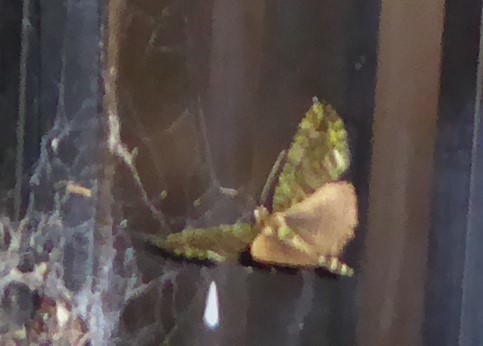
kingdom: Animalia
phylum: Arthropoda
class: Insecta
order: Lepidoptera
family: Geometridae
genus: Austrocidaria
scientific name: Austrocidaria similata
